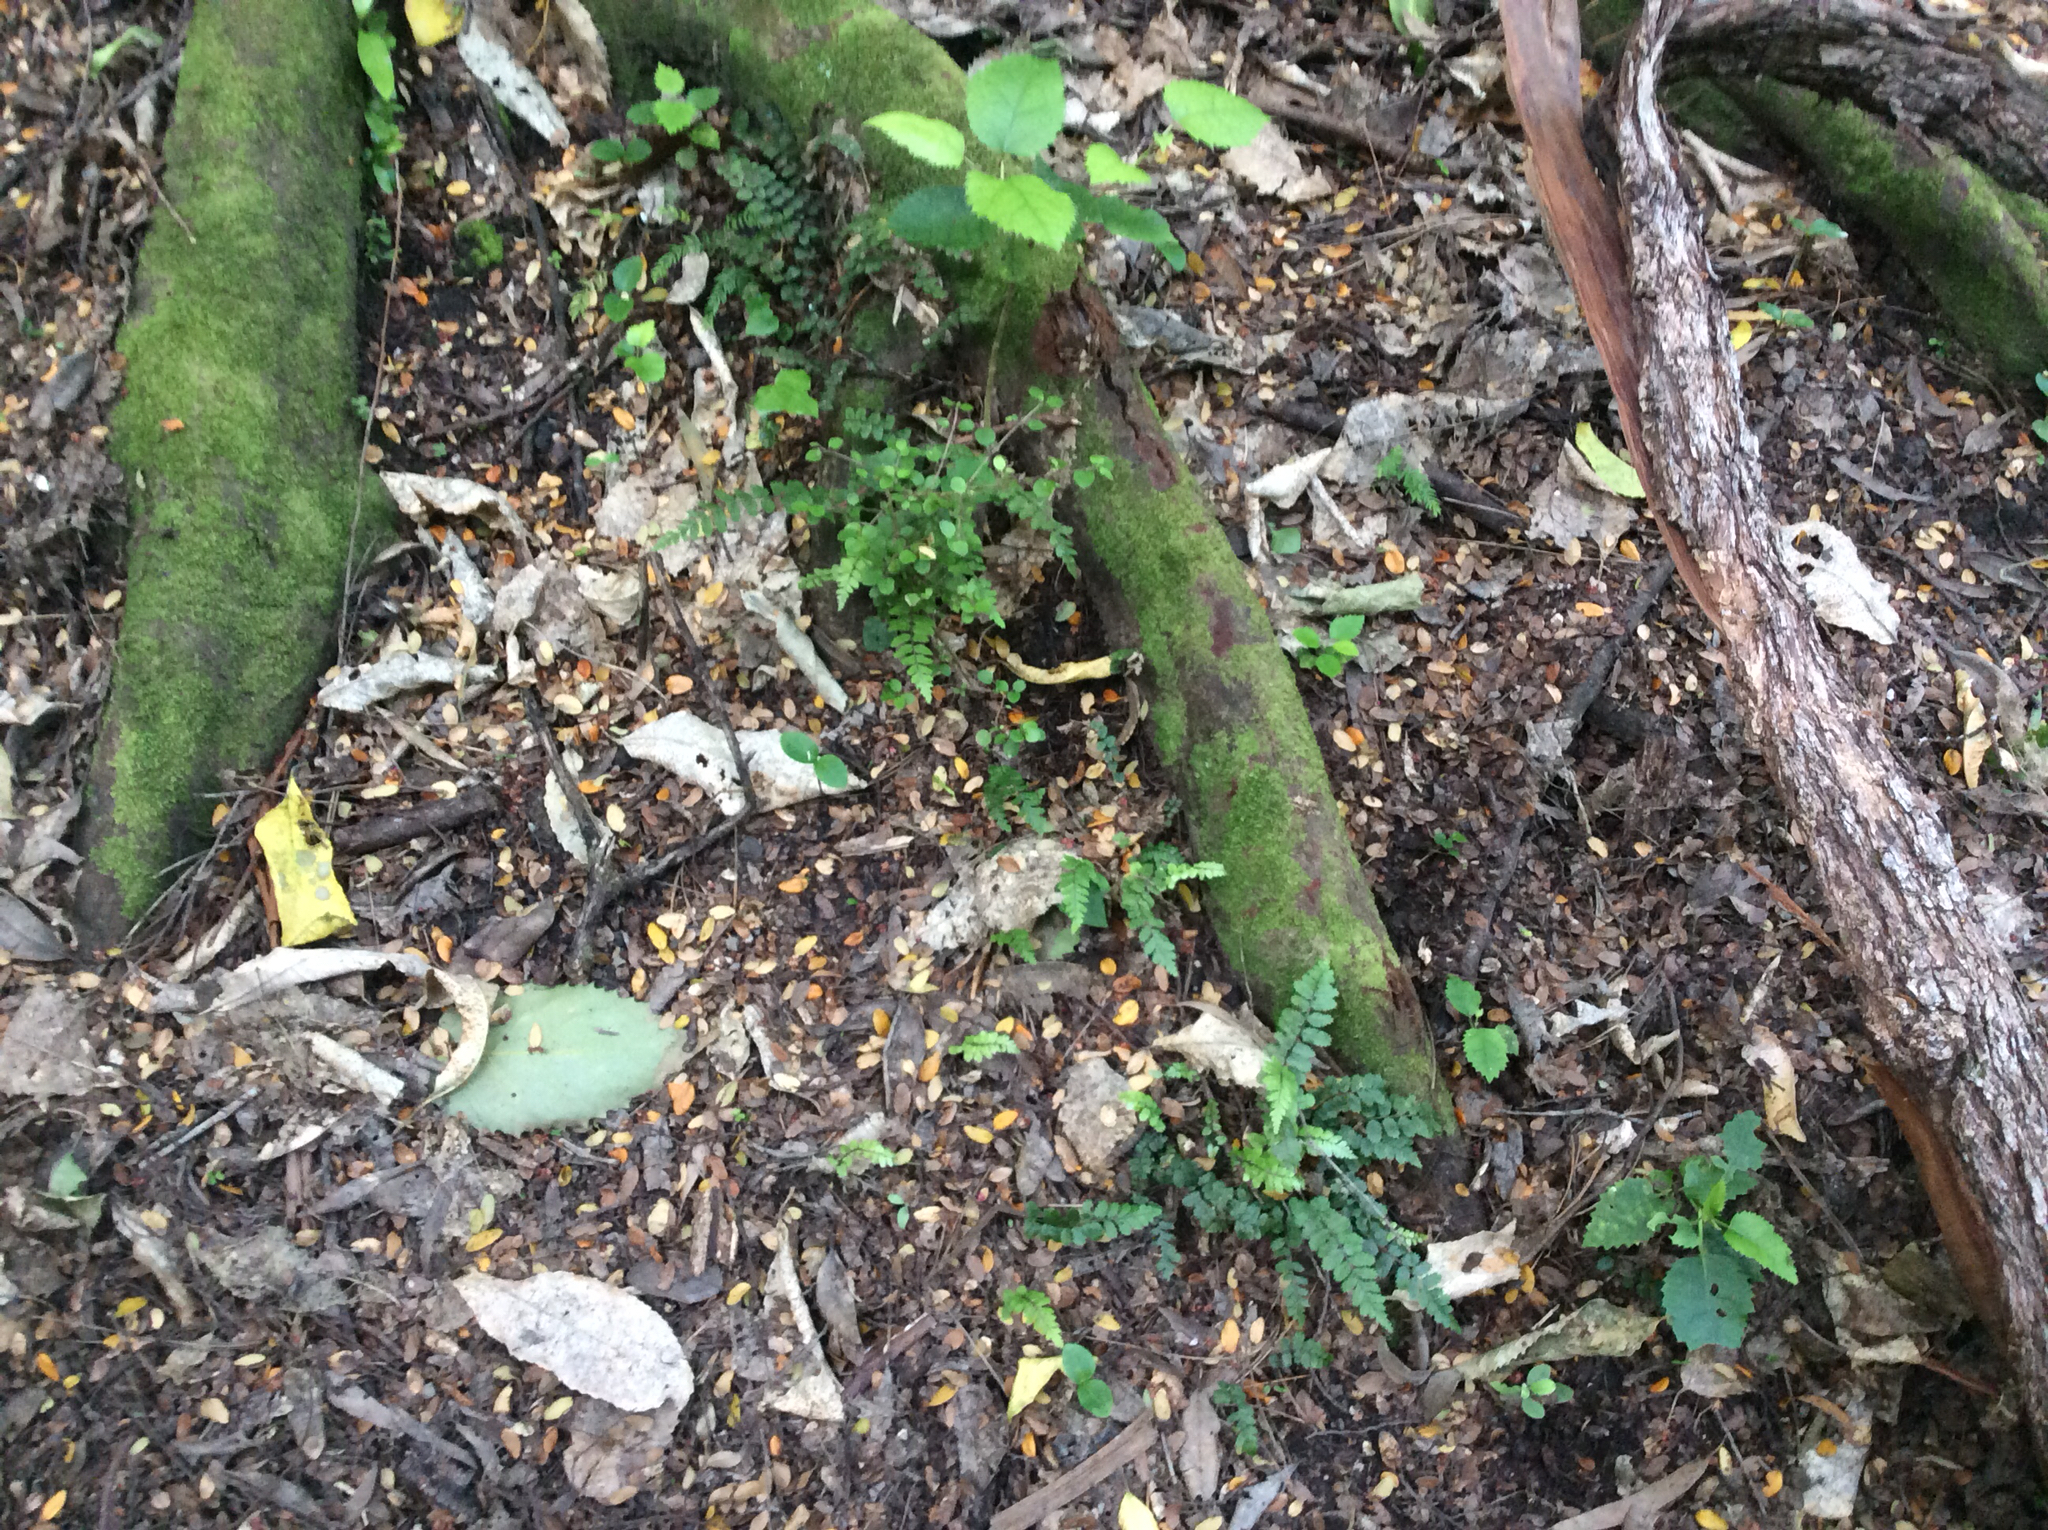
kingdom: Plantae
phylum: Tracheophyta
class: Polypodiopsida
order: Polypodiales
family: Blechnaceae
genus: Icarus
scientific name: Icarus filiformis
